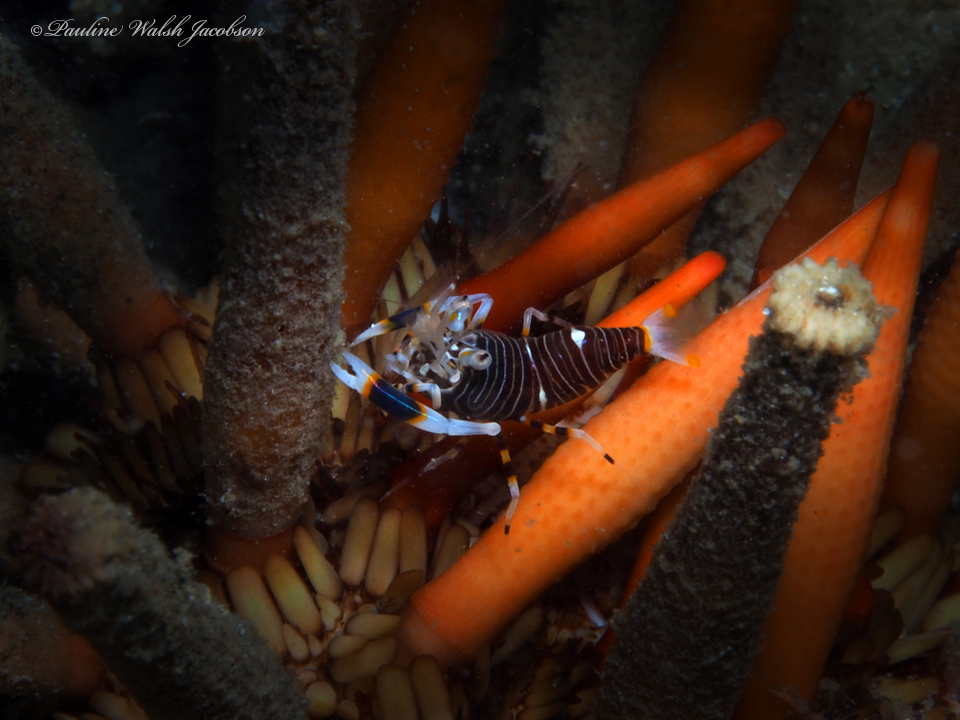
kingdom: Animalia
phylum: Arthropoda
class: Malacostraca
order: Decapoda
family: Palaemonidae
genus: Gnathophyllum
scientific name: Gnathophyllum americanum
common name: Bumblebee shrimp
